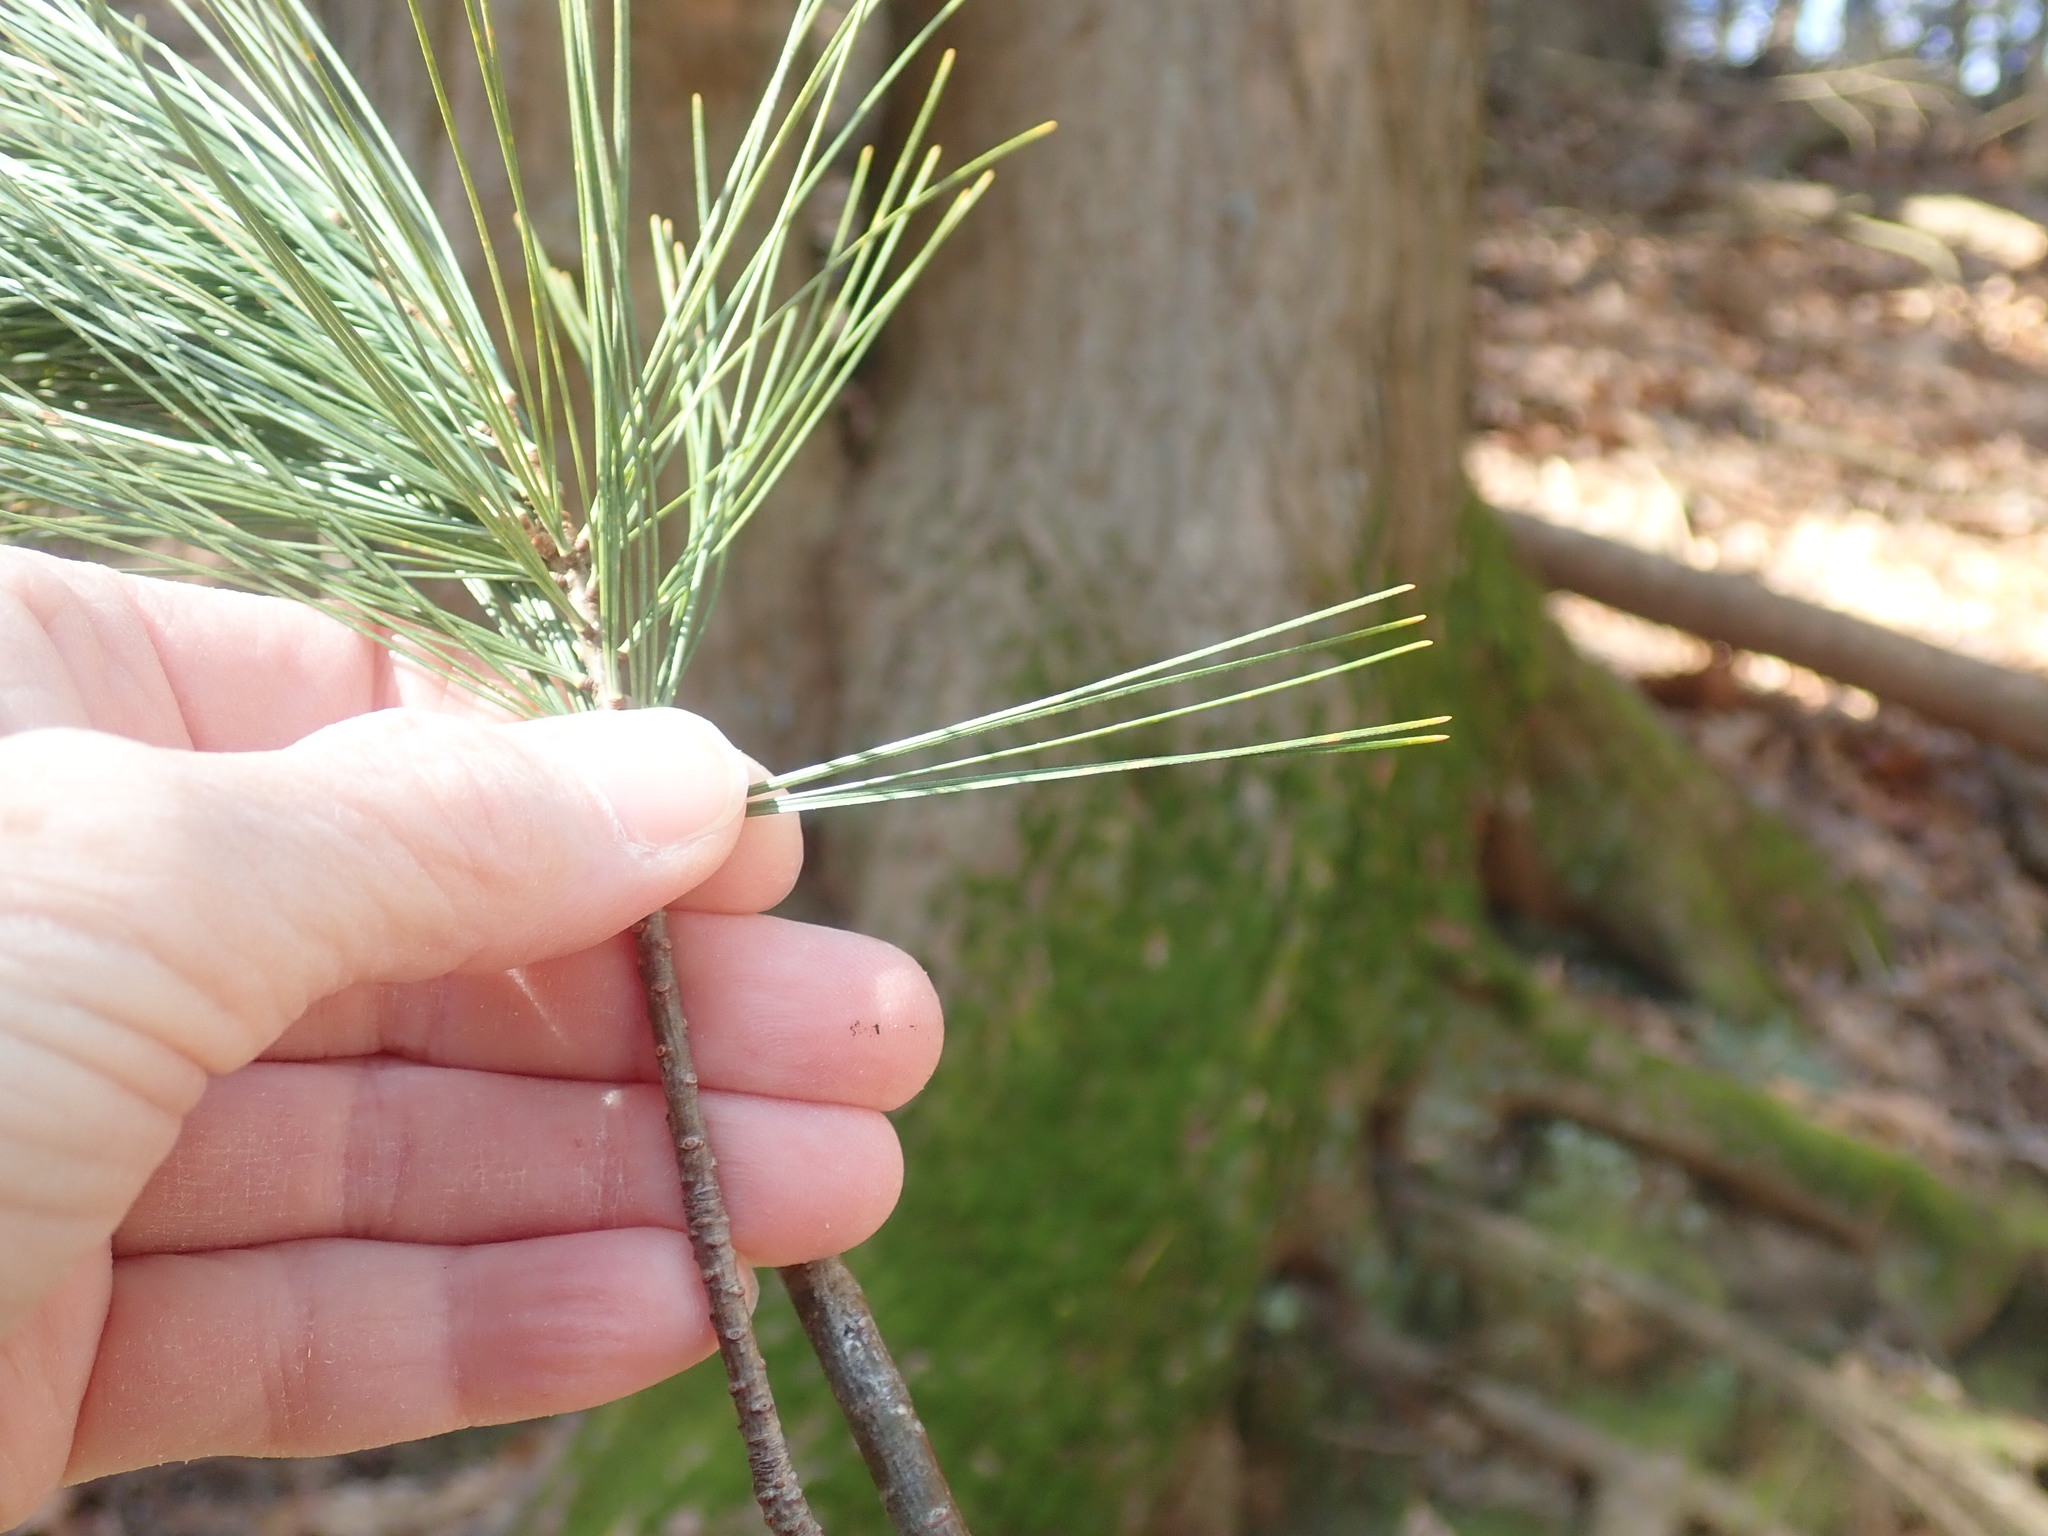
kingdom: Plantae
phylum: Tracheophyta
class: Pinopsida
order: Pinales
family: Pinaceae
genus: Pinus
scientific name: Pinus strobus
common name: Weymouth pine
